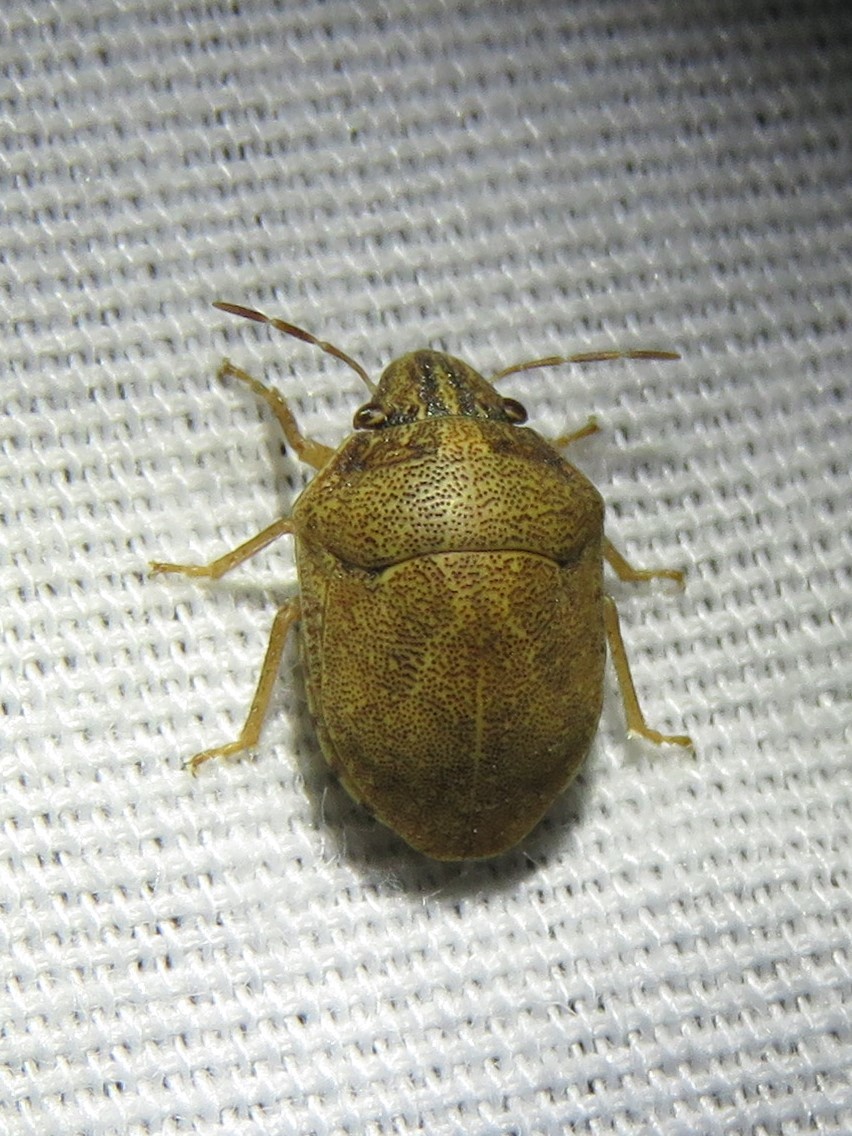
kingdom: Animalia
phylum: Arthropoda
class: Insecta
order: Hemiptera
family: Scutelleridae
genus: Sphyrocoris
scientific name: Sphyrocoris obliquus
